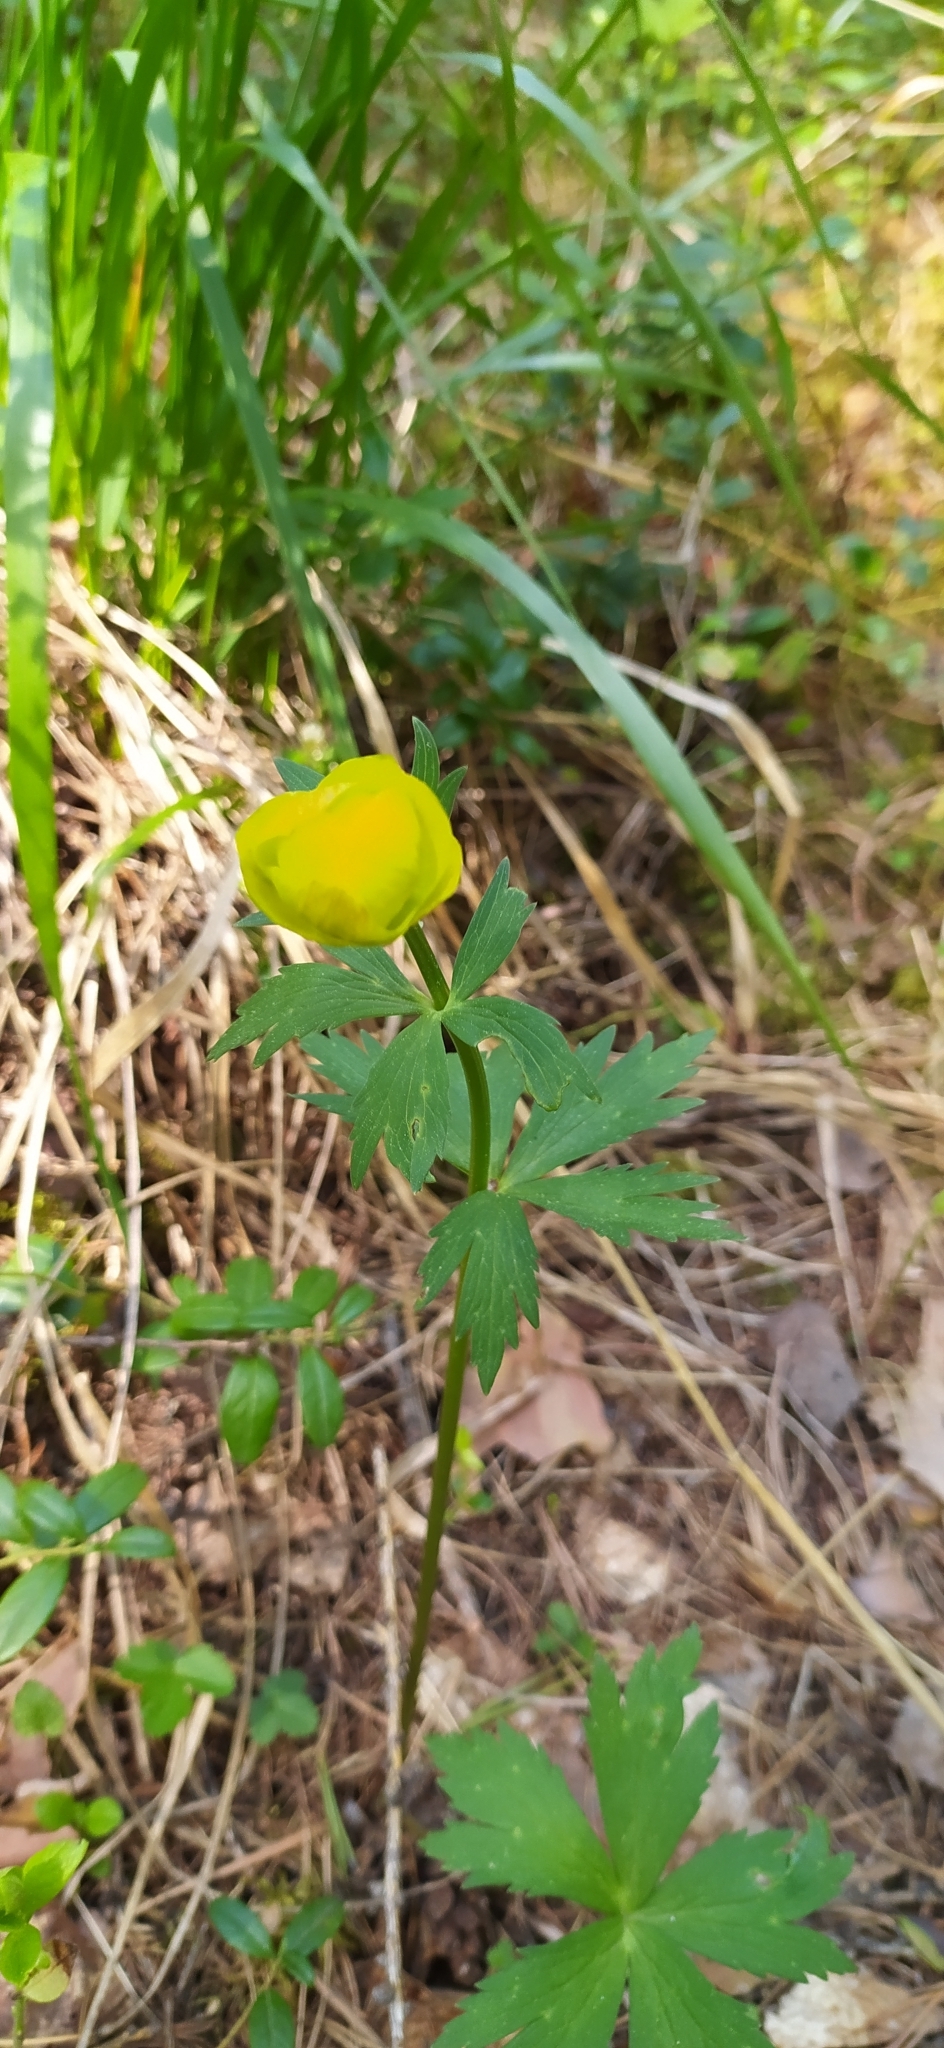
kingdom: Plantae
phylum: Tracheophyta
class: Magnoliopsida
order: Ranunculales
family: Ranunculaceae
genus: Trollius
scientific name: Trollius europaeus
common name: European globeflower
